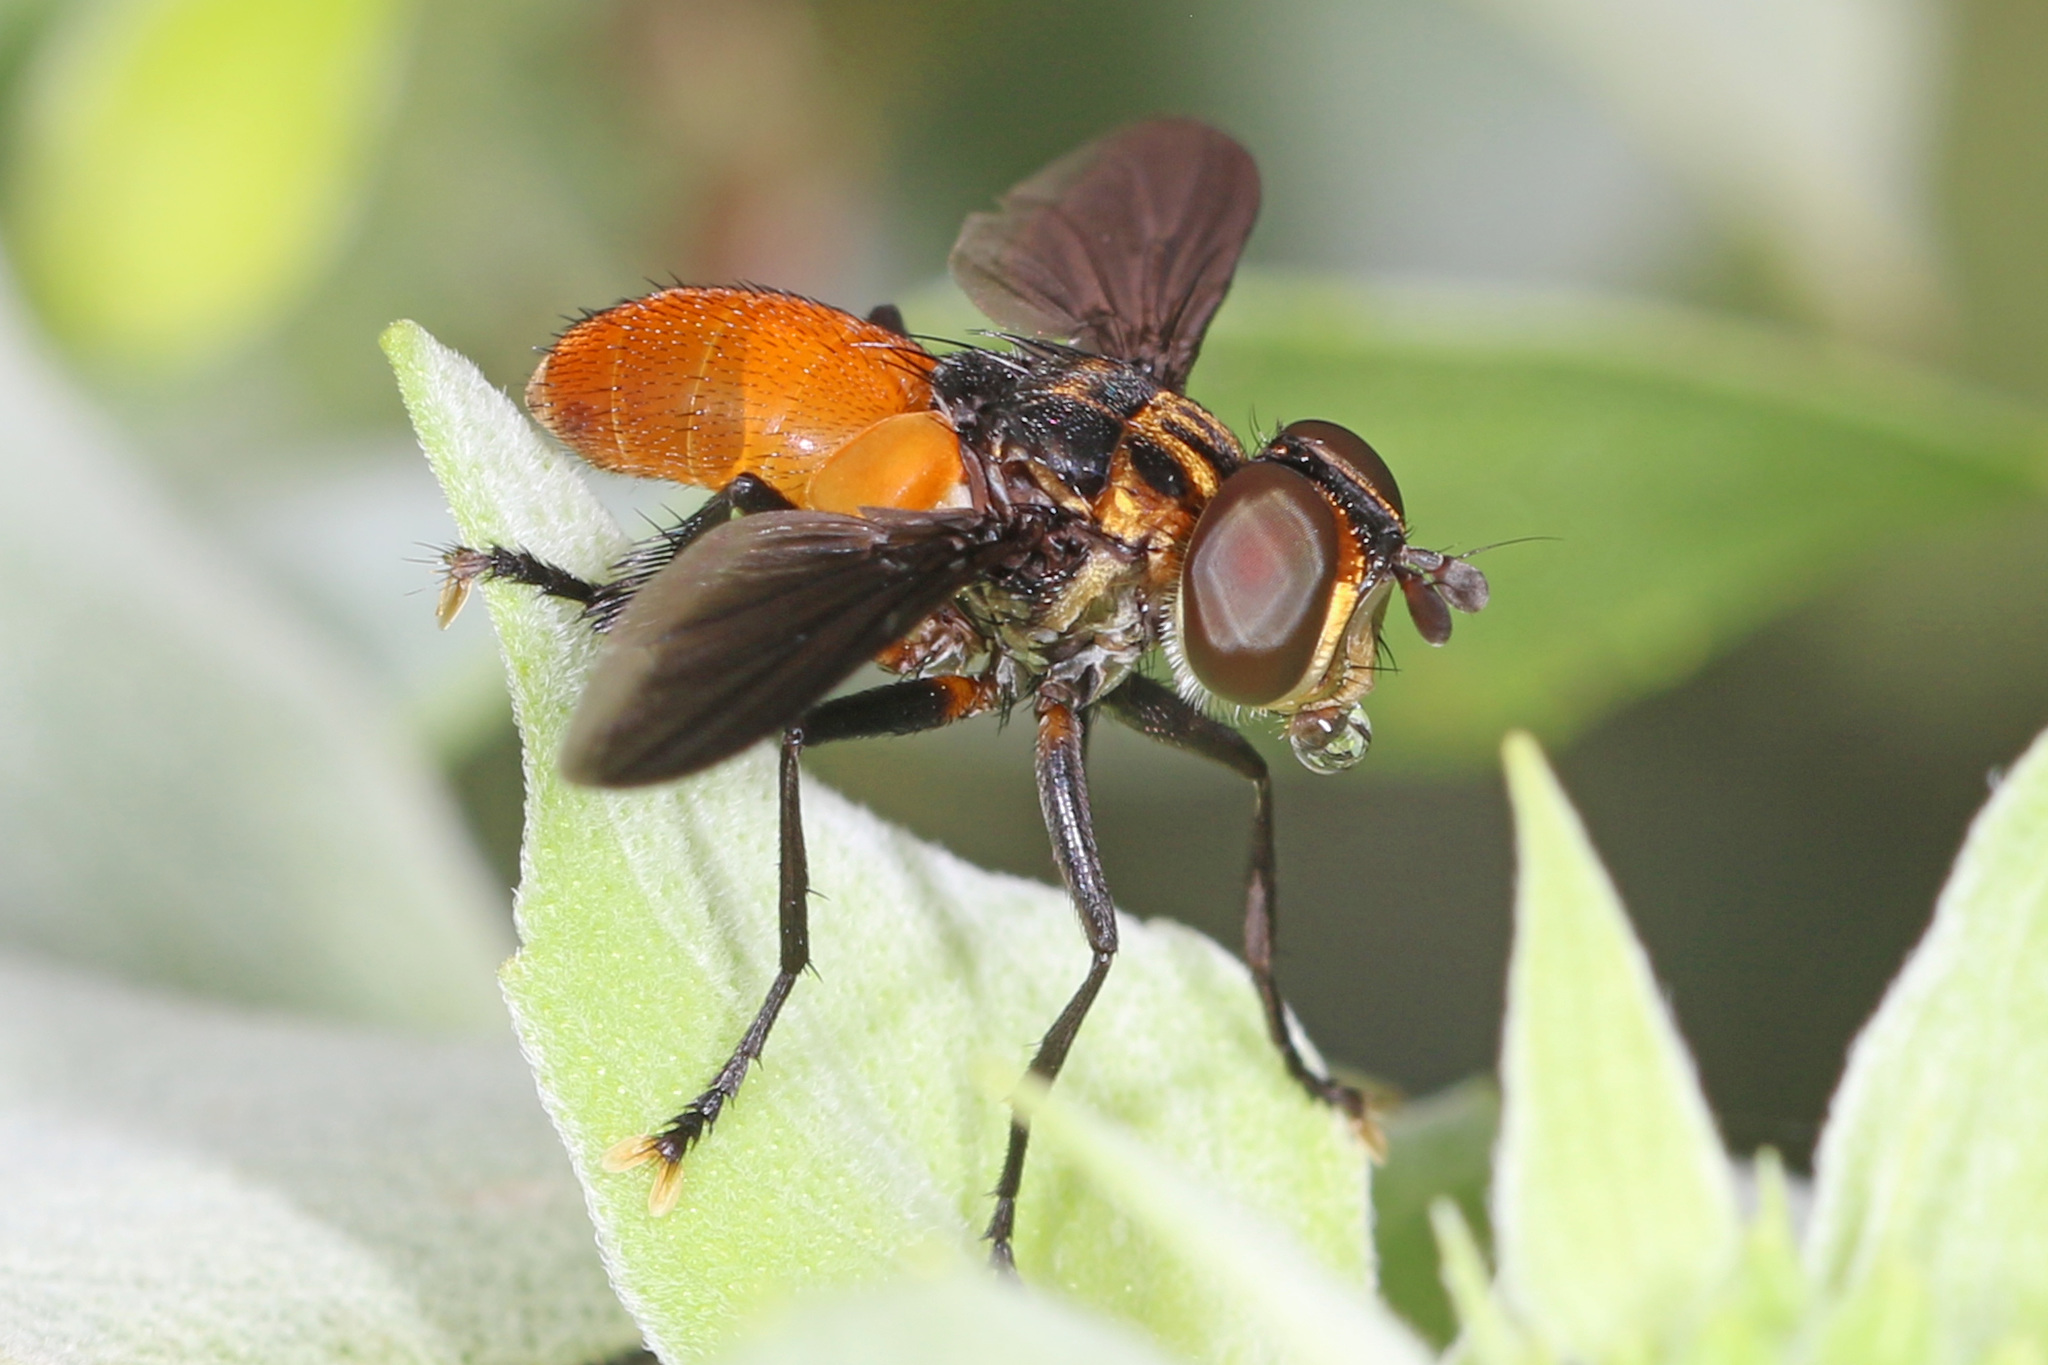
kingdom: Animalia
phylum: Arthropoda
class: Insecta
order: Diptera
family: Tachinidae
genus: Trichopoda
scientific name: Trichopoda pennipes
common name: Tachinid fly
